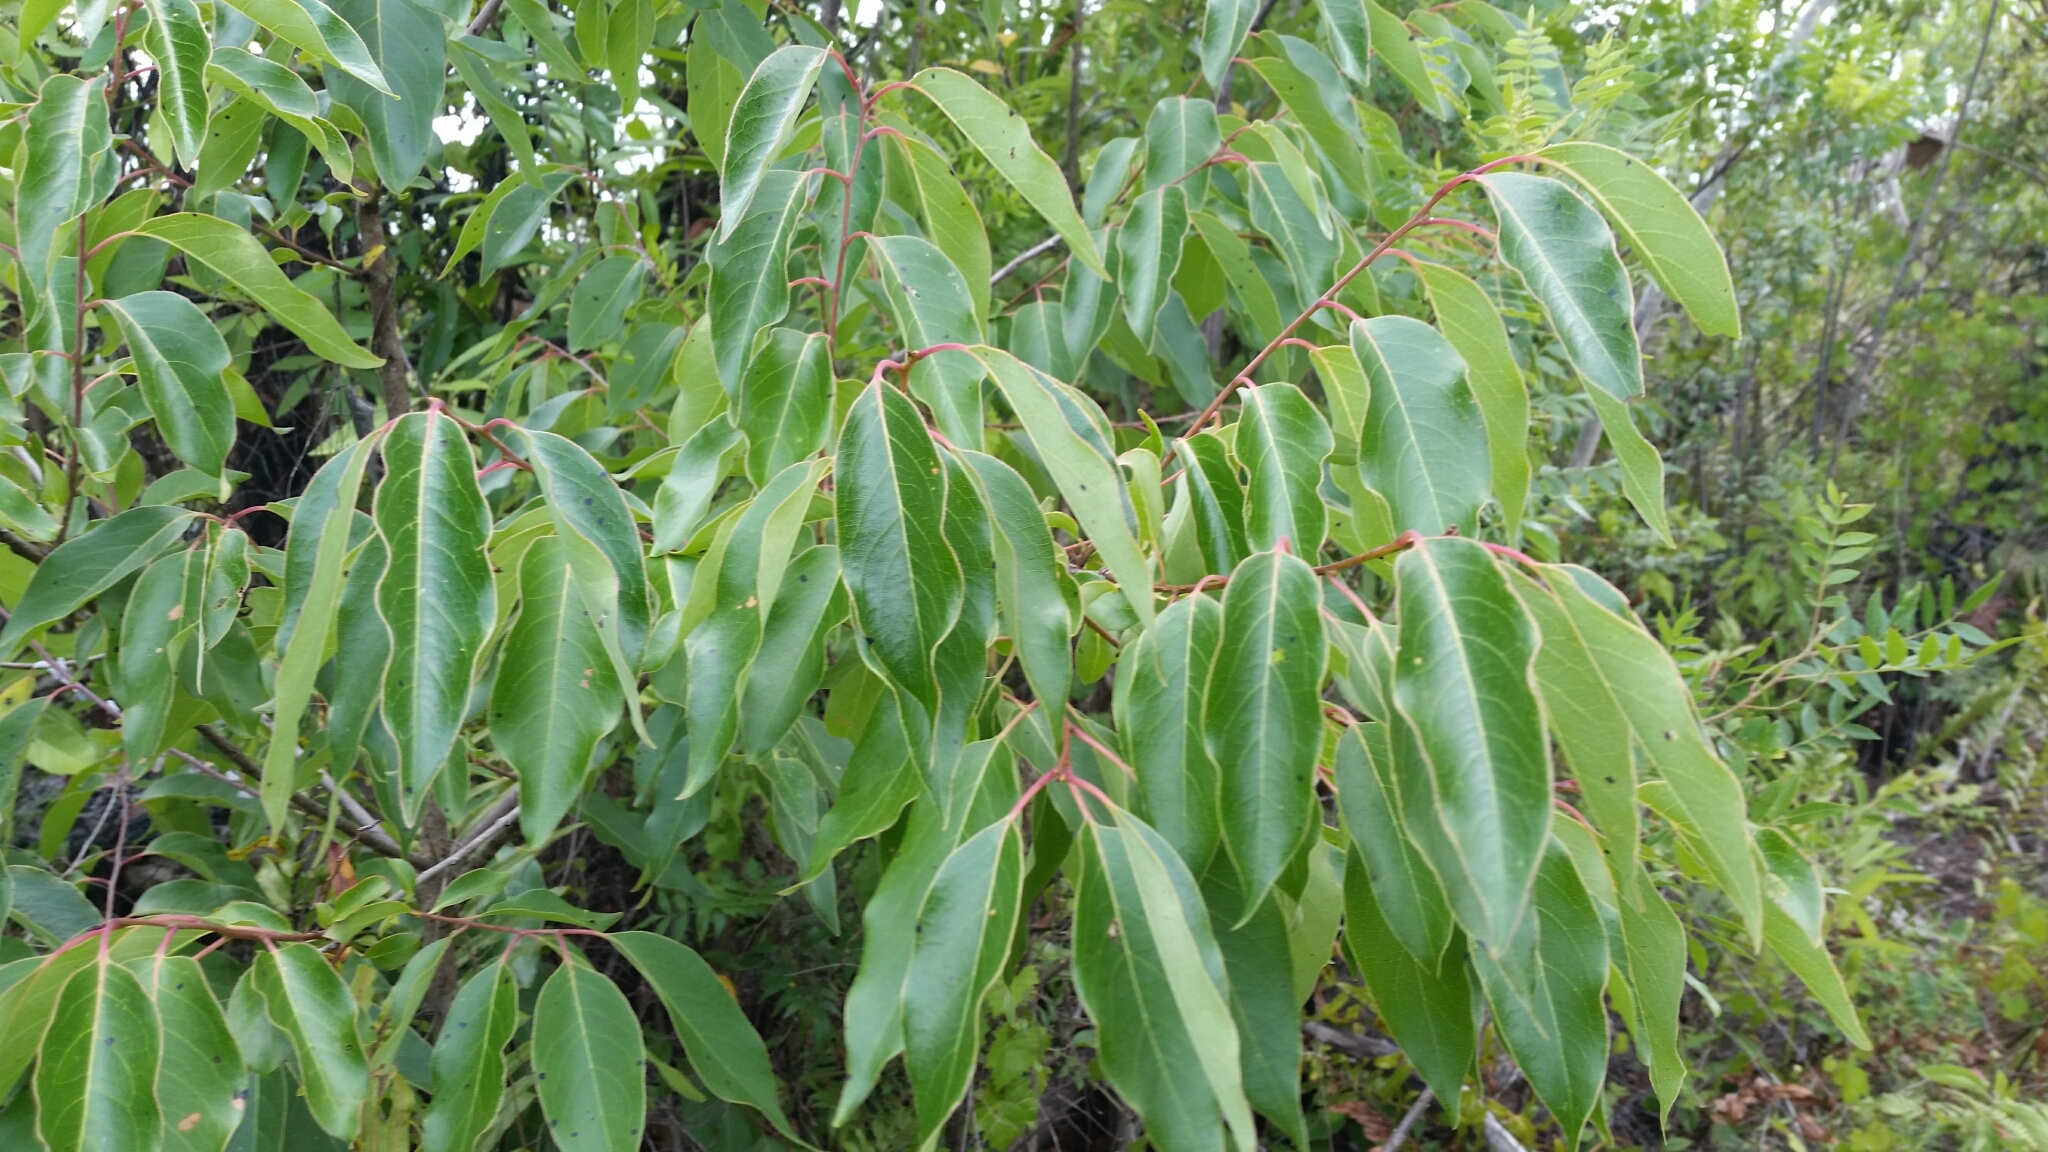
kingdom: Plantae
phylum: Tracheophyta
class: Magnoliopsida
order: Ericales
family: Ebenaceae
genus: Diospyros
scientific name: Diospyros virginiana
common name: Persimmon
